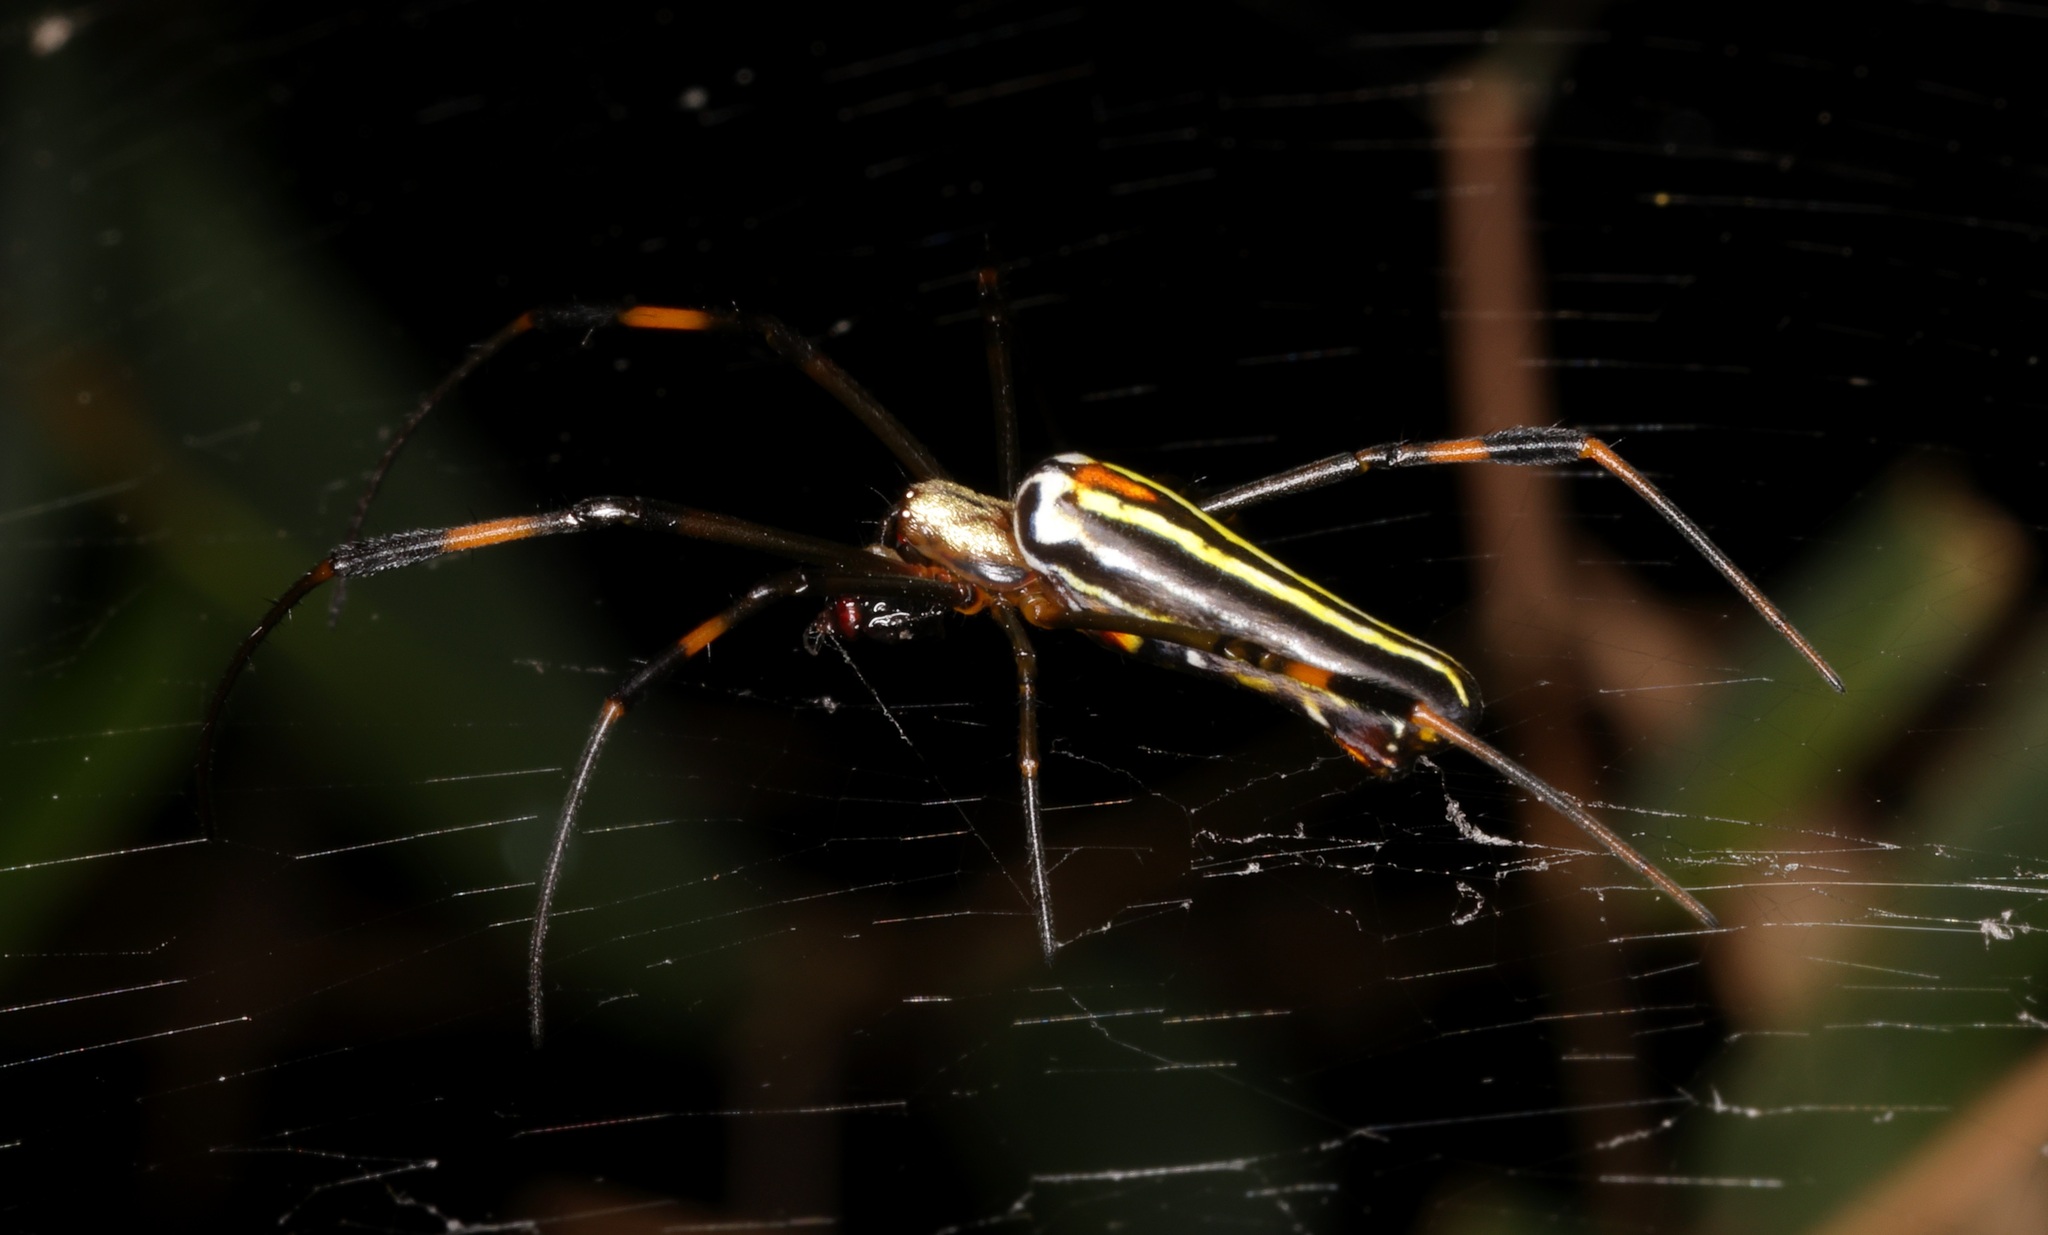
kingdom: Animalia
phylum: Arthropoda
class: Arachnida
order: Araneae
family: Araneidae
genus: Nephila
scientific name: Nephila pilipes
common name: Giant golden orb weaver
